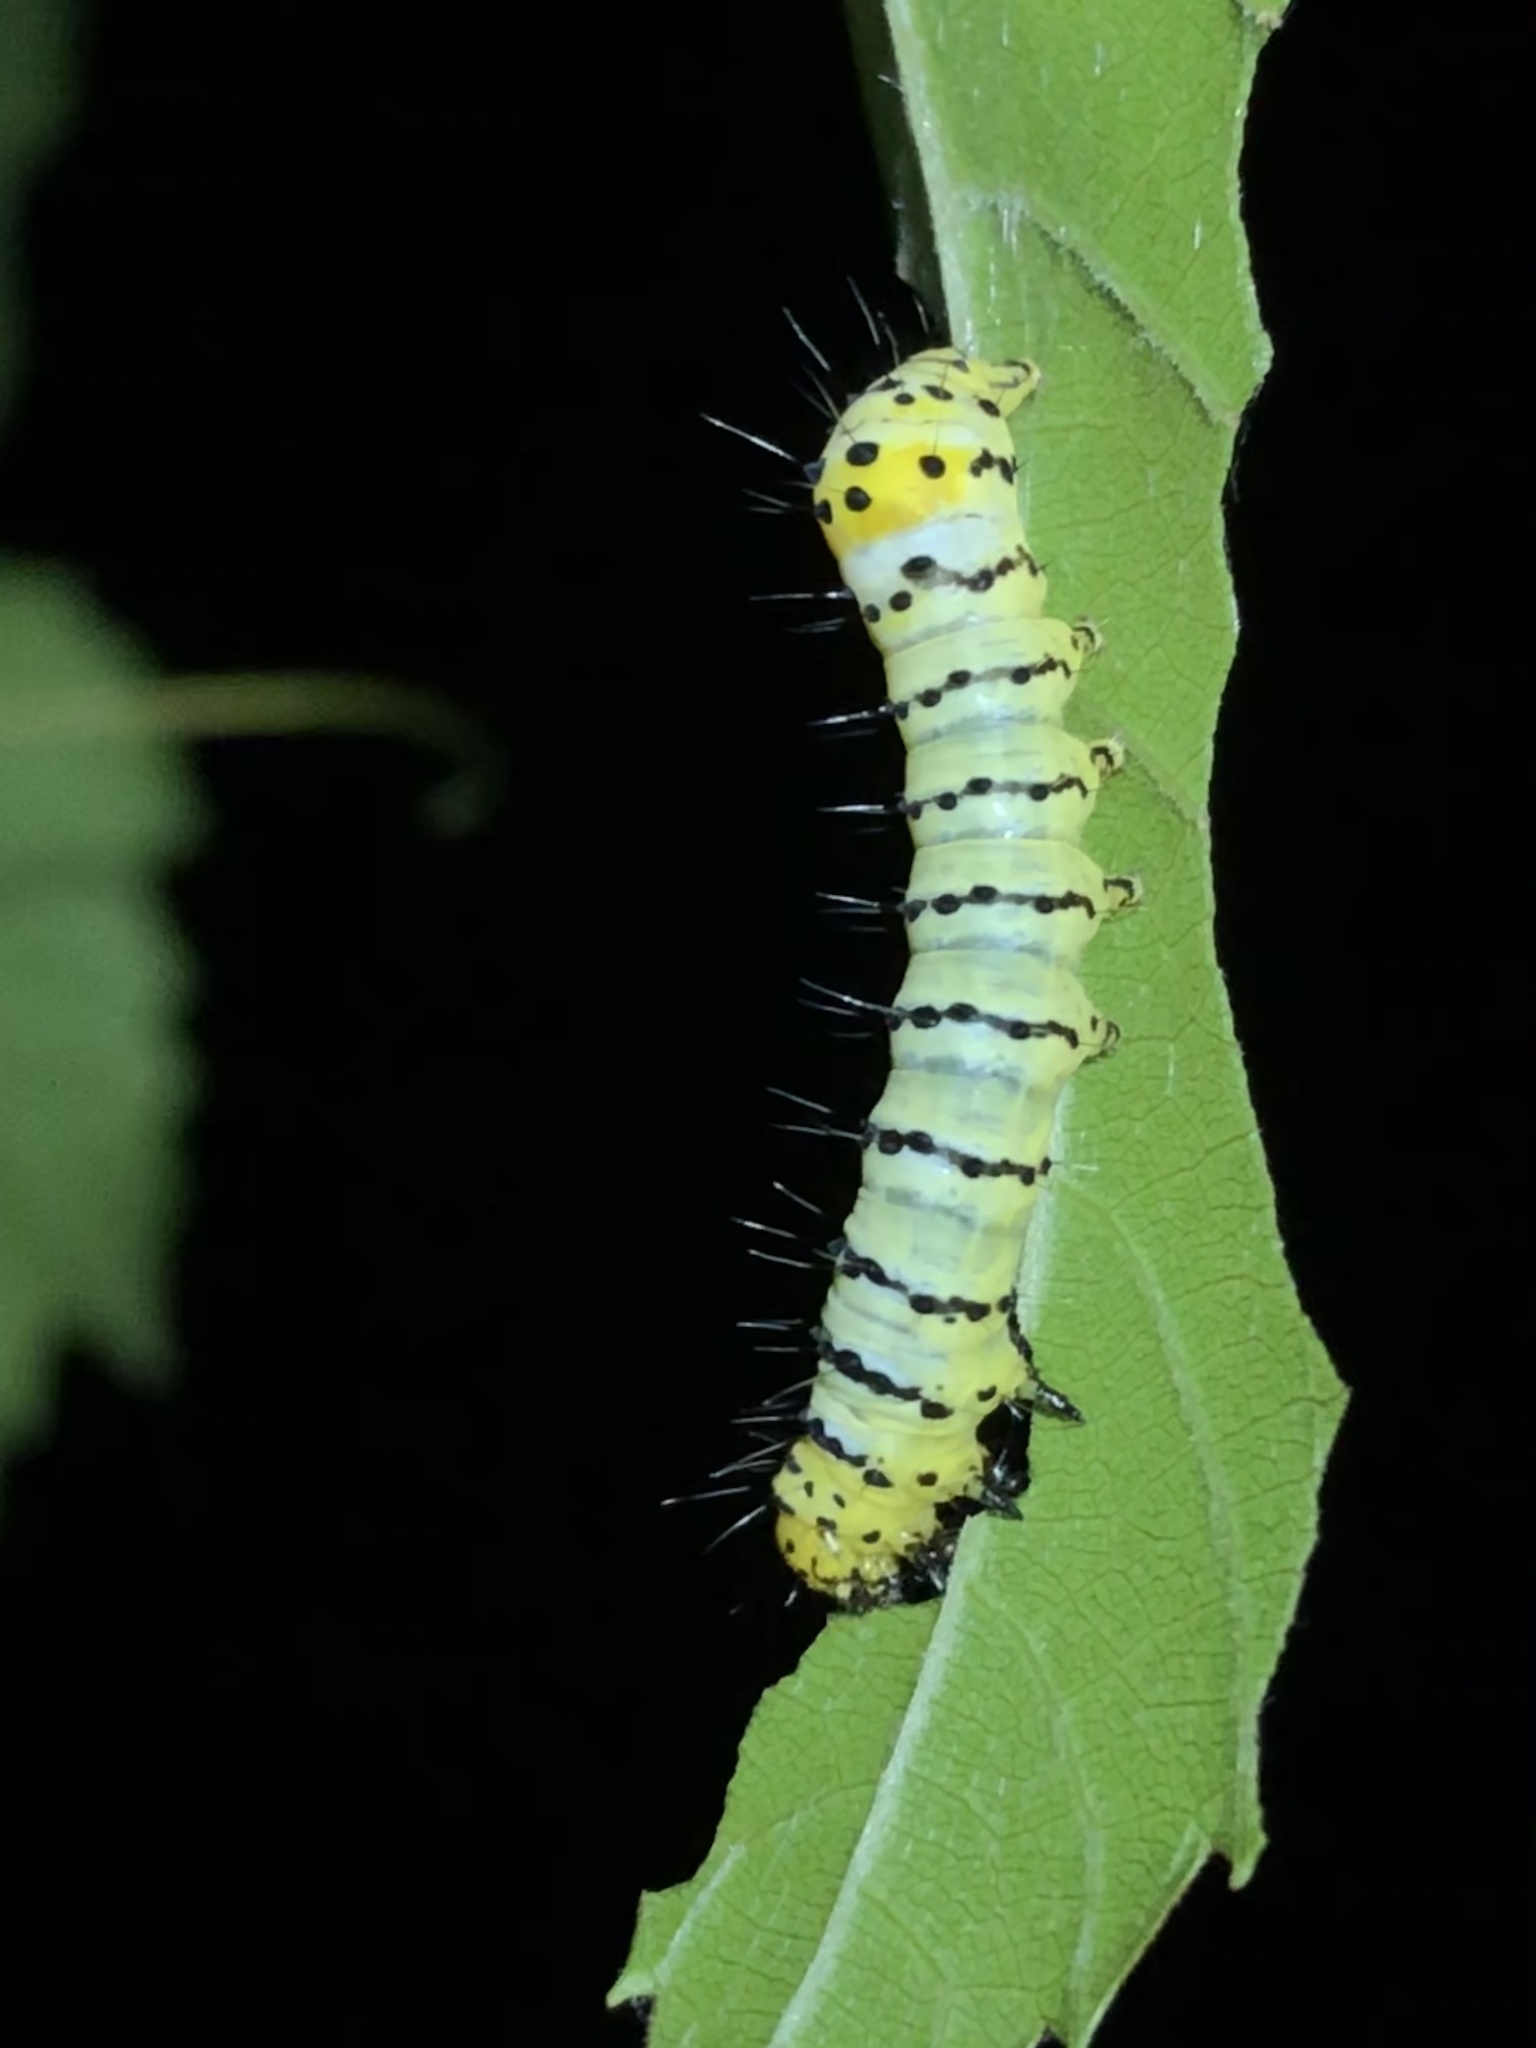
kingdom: Animalia
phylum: Arthropoda
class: Insecta
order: Lepidoptera
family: Noctuidae
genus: Gerrodes
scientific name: Gerrodes minatea
